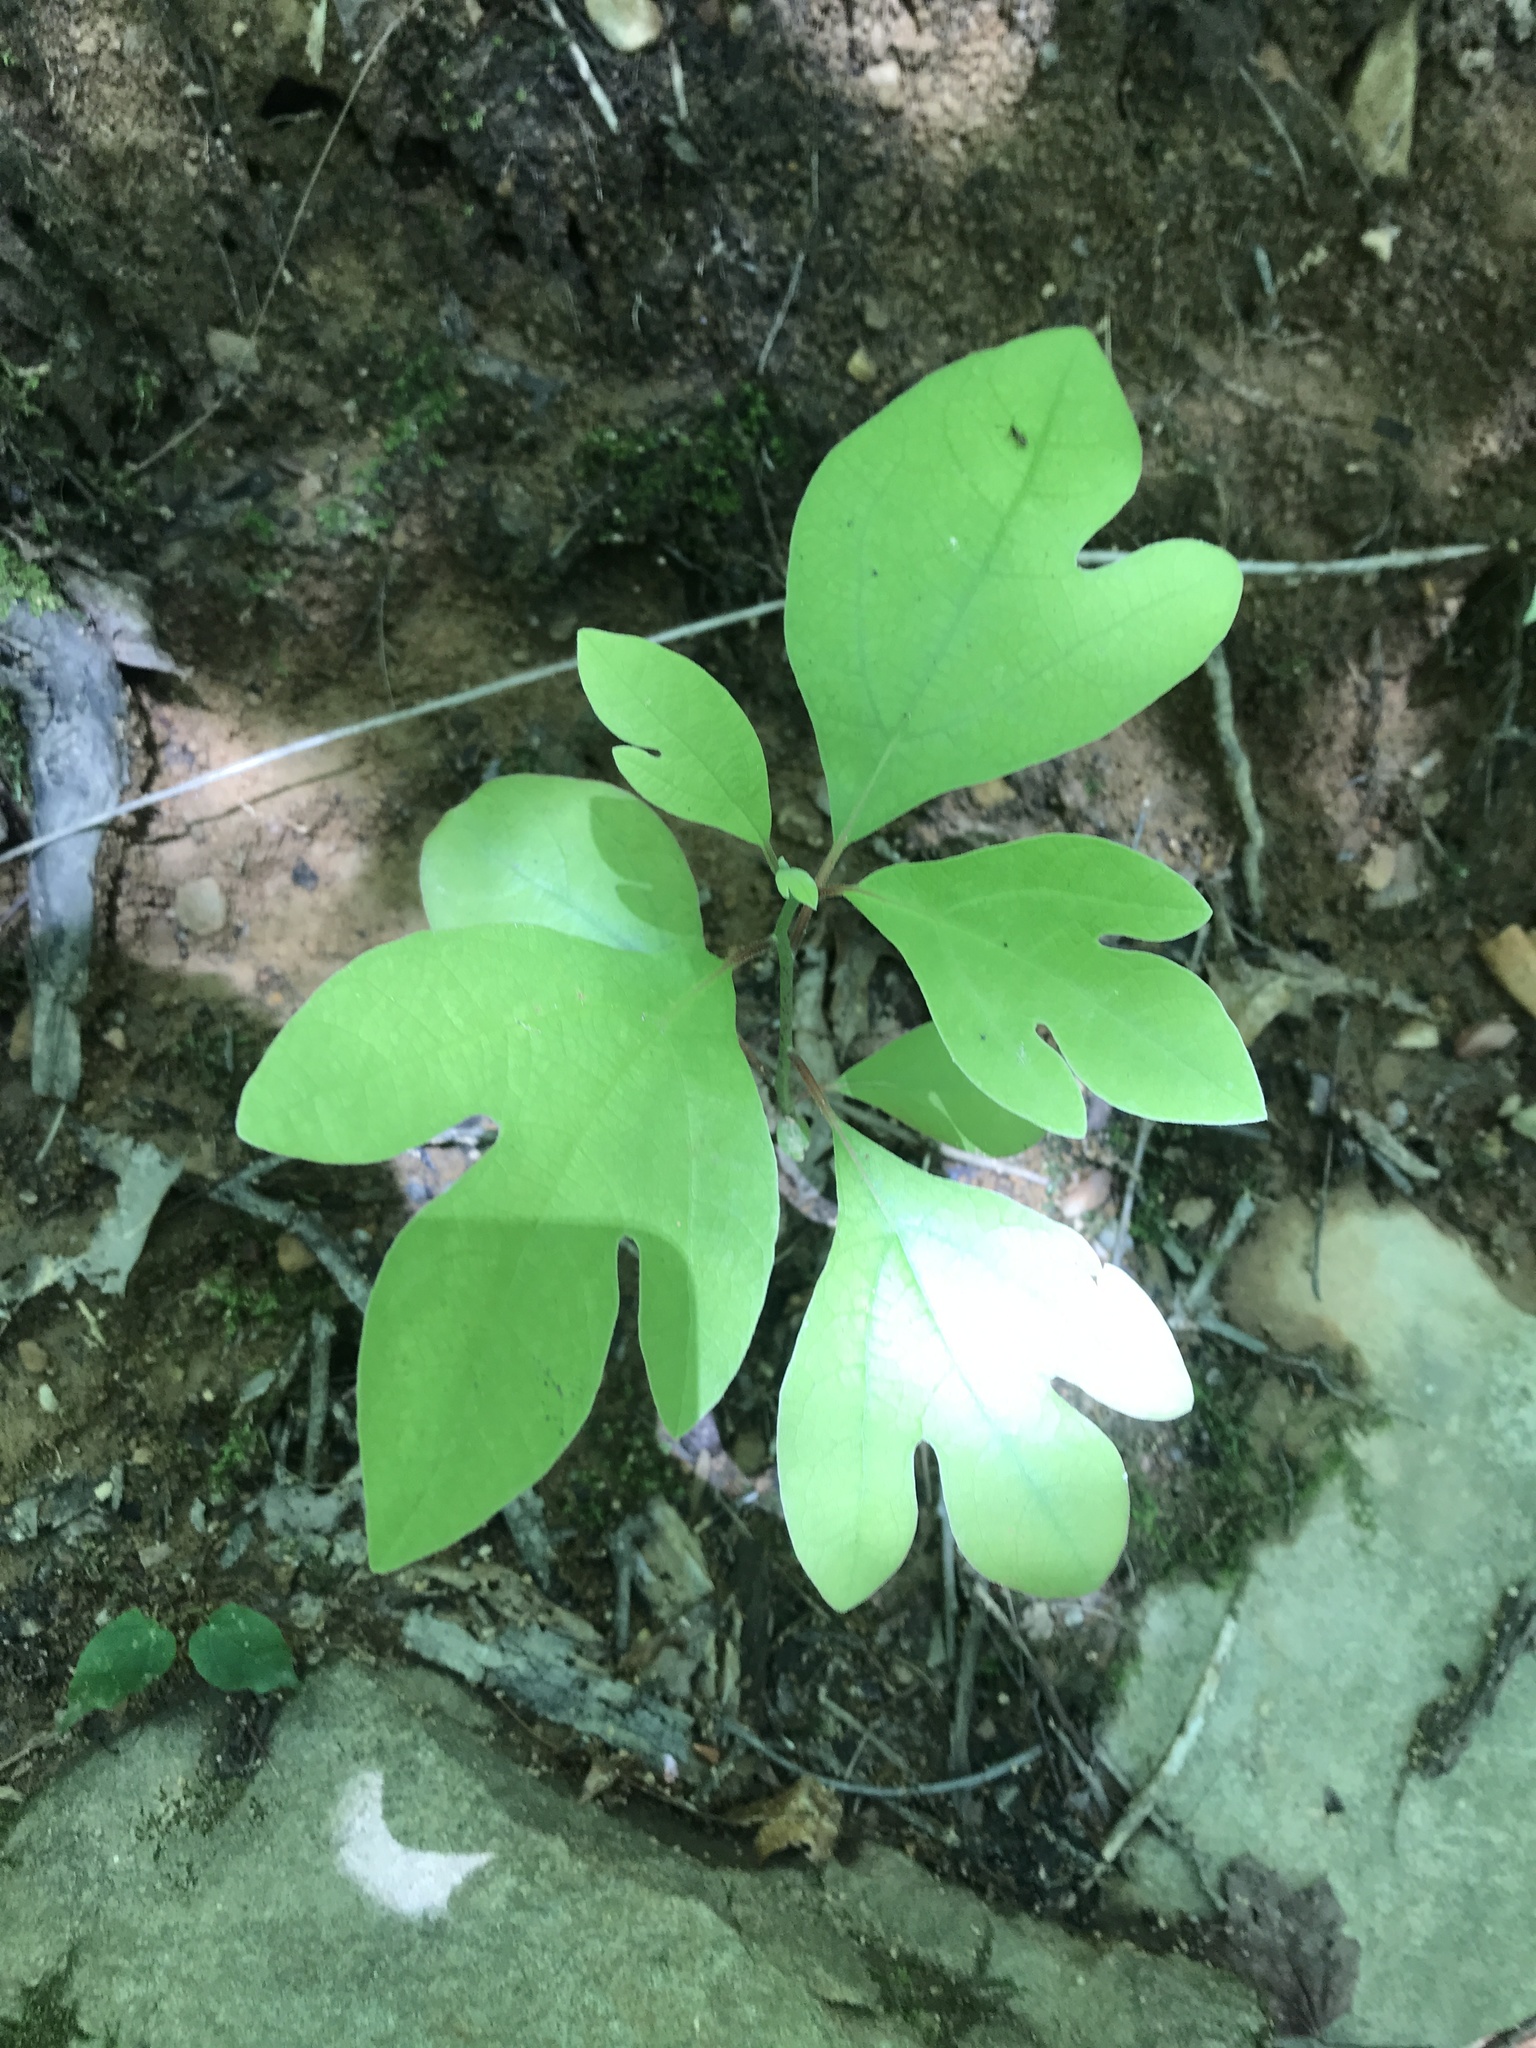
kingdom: Plantae
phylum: Tracheophyta
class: Magnoliopsida
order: Laurales
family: Lauraceae
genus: Sassafras
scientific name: Sassafras albidum
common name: Sassafras
